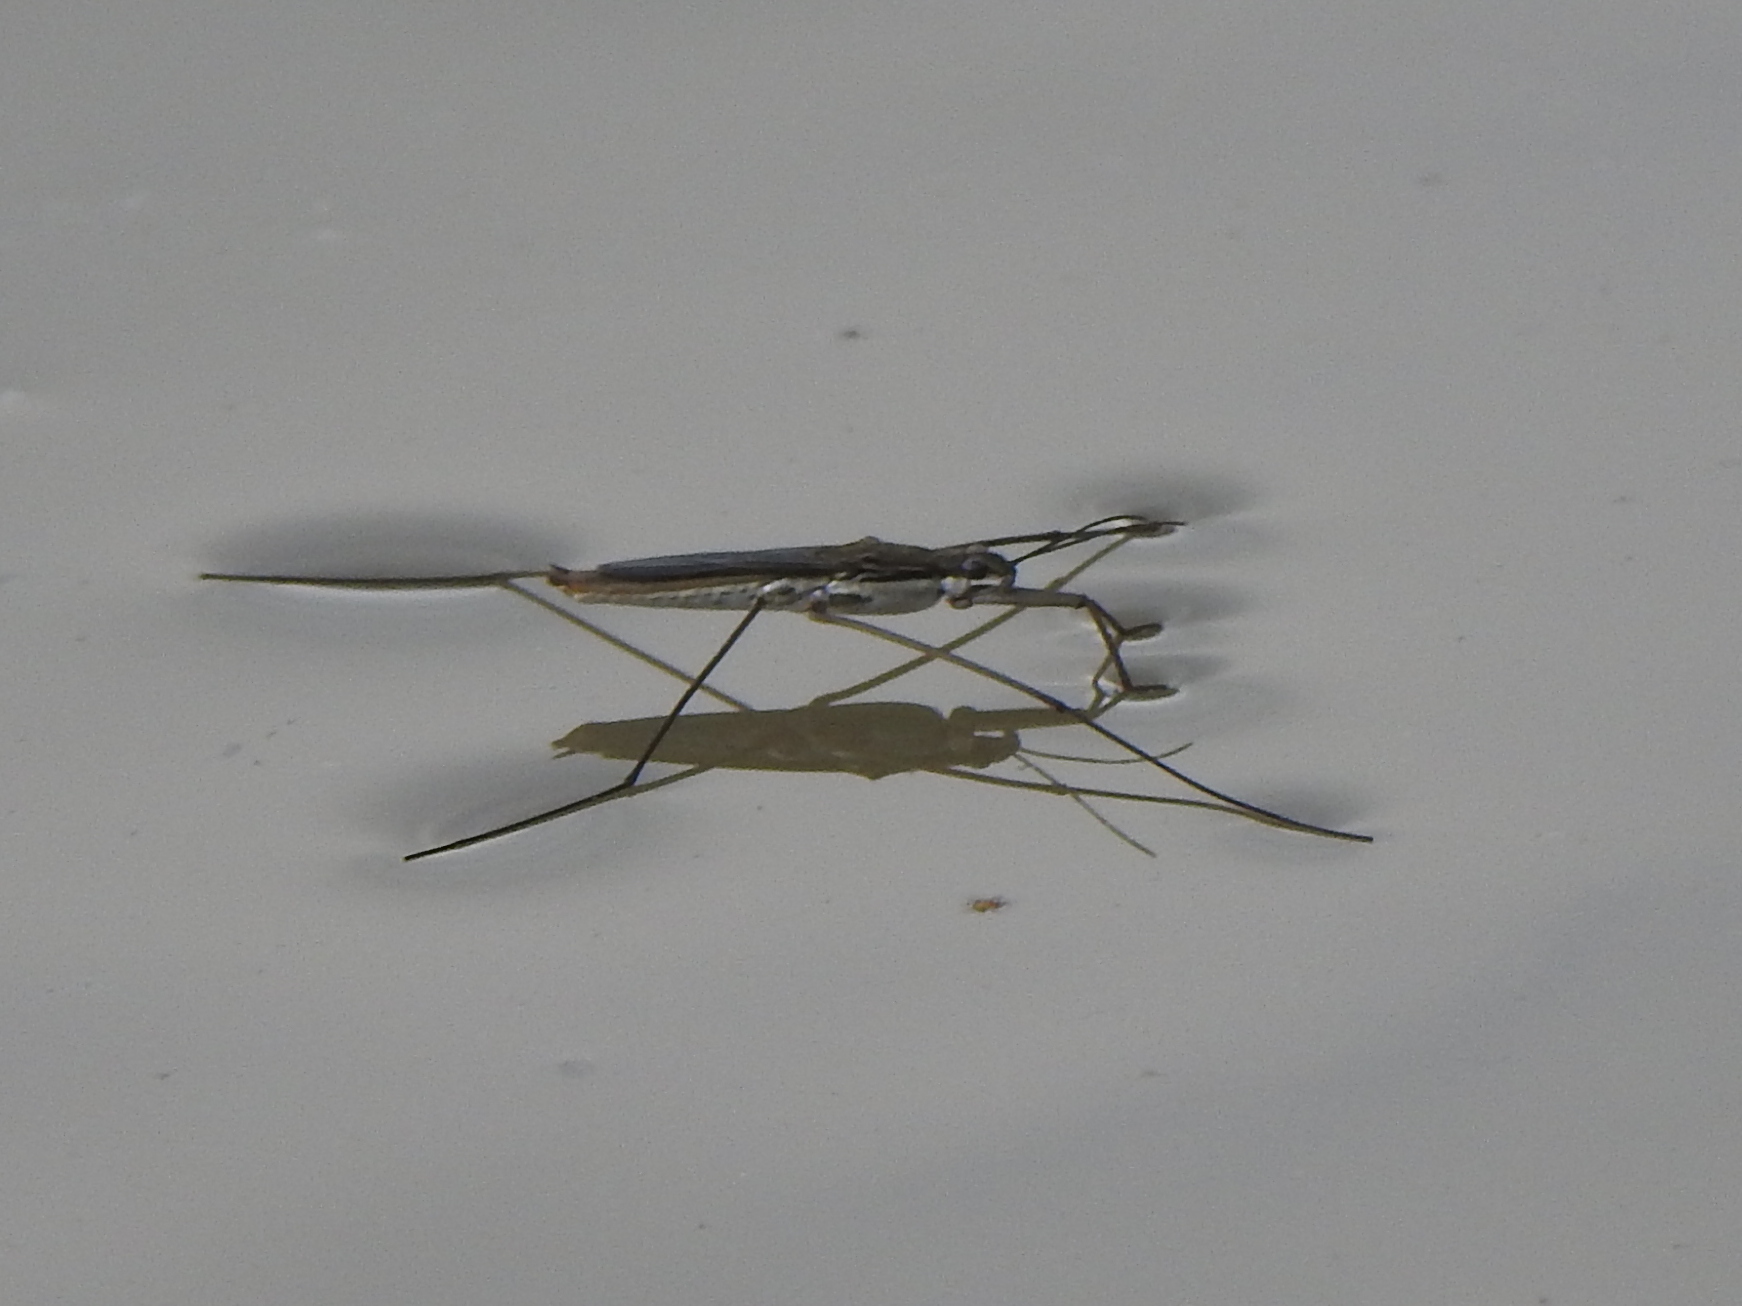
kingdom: Animalia
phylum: Arthropoda
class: Insecta
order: Hemiptera
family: Gerridae
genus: Aquarius
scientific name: Aquarius paludum
